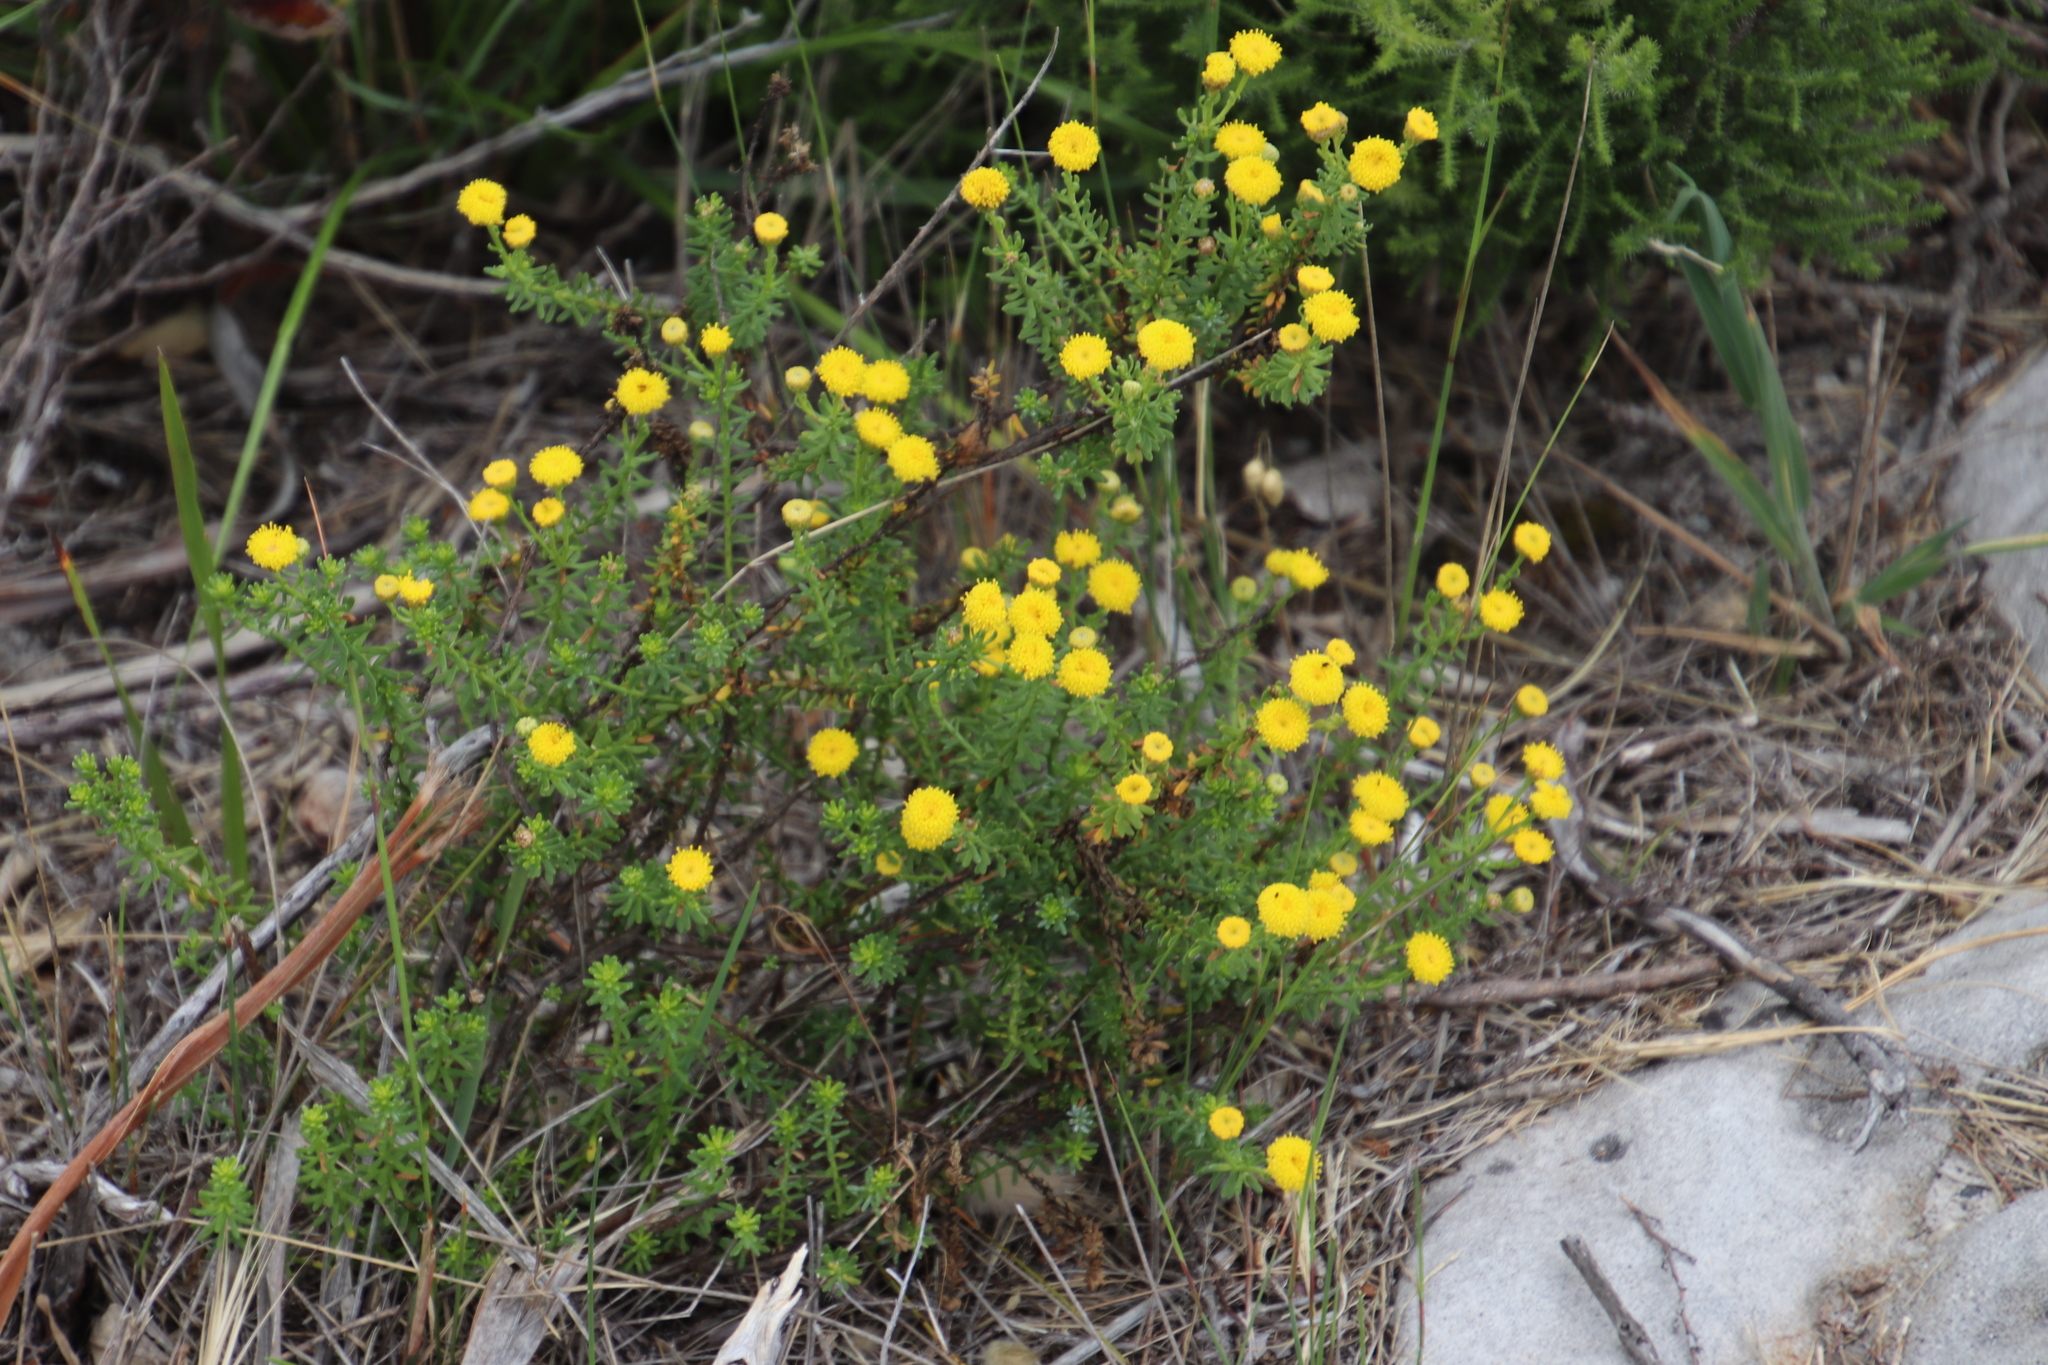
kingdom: Plantae
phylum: Tracheophyta
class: Magnoliopsida
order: Asterales
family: Asteraceae
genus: Chrysocoma
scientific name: Chrysocoma cernua
